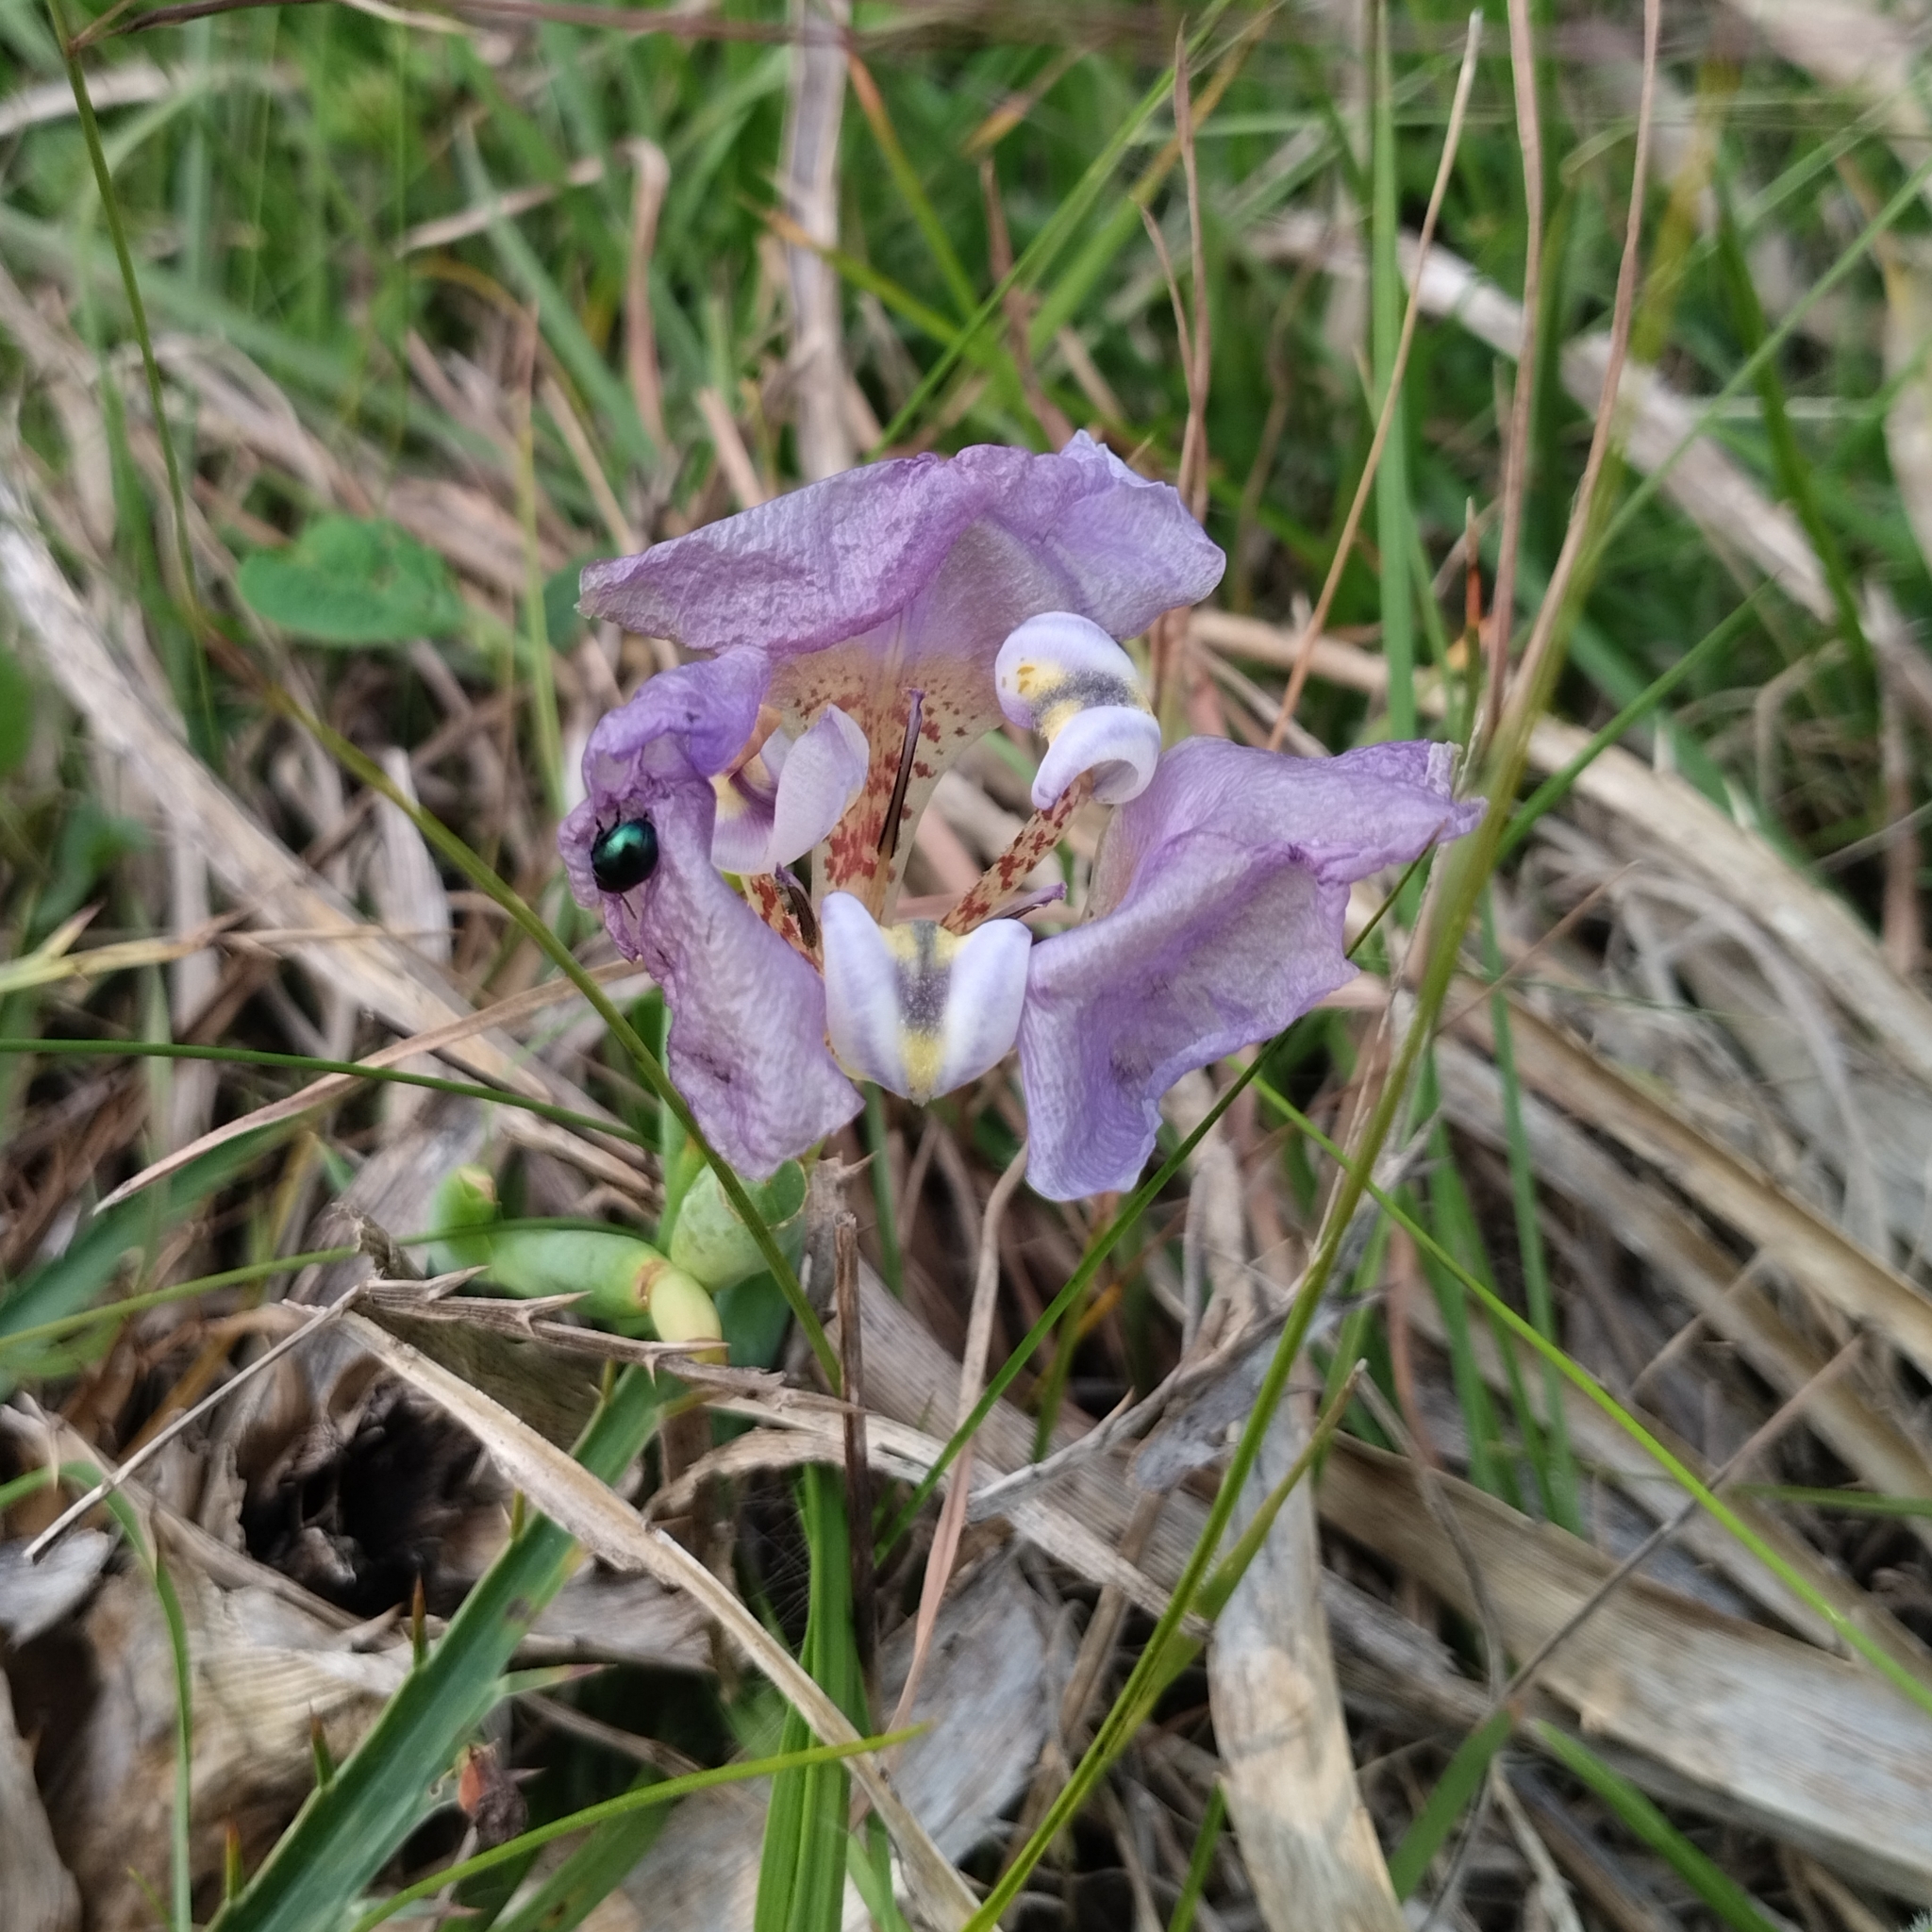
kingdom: Plantae
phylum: Tracheophyta
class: Liliopsida
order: Asparagales
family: Iridaceae
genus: Cypella
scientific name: Cypella unguiculata
